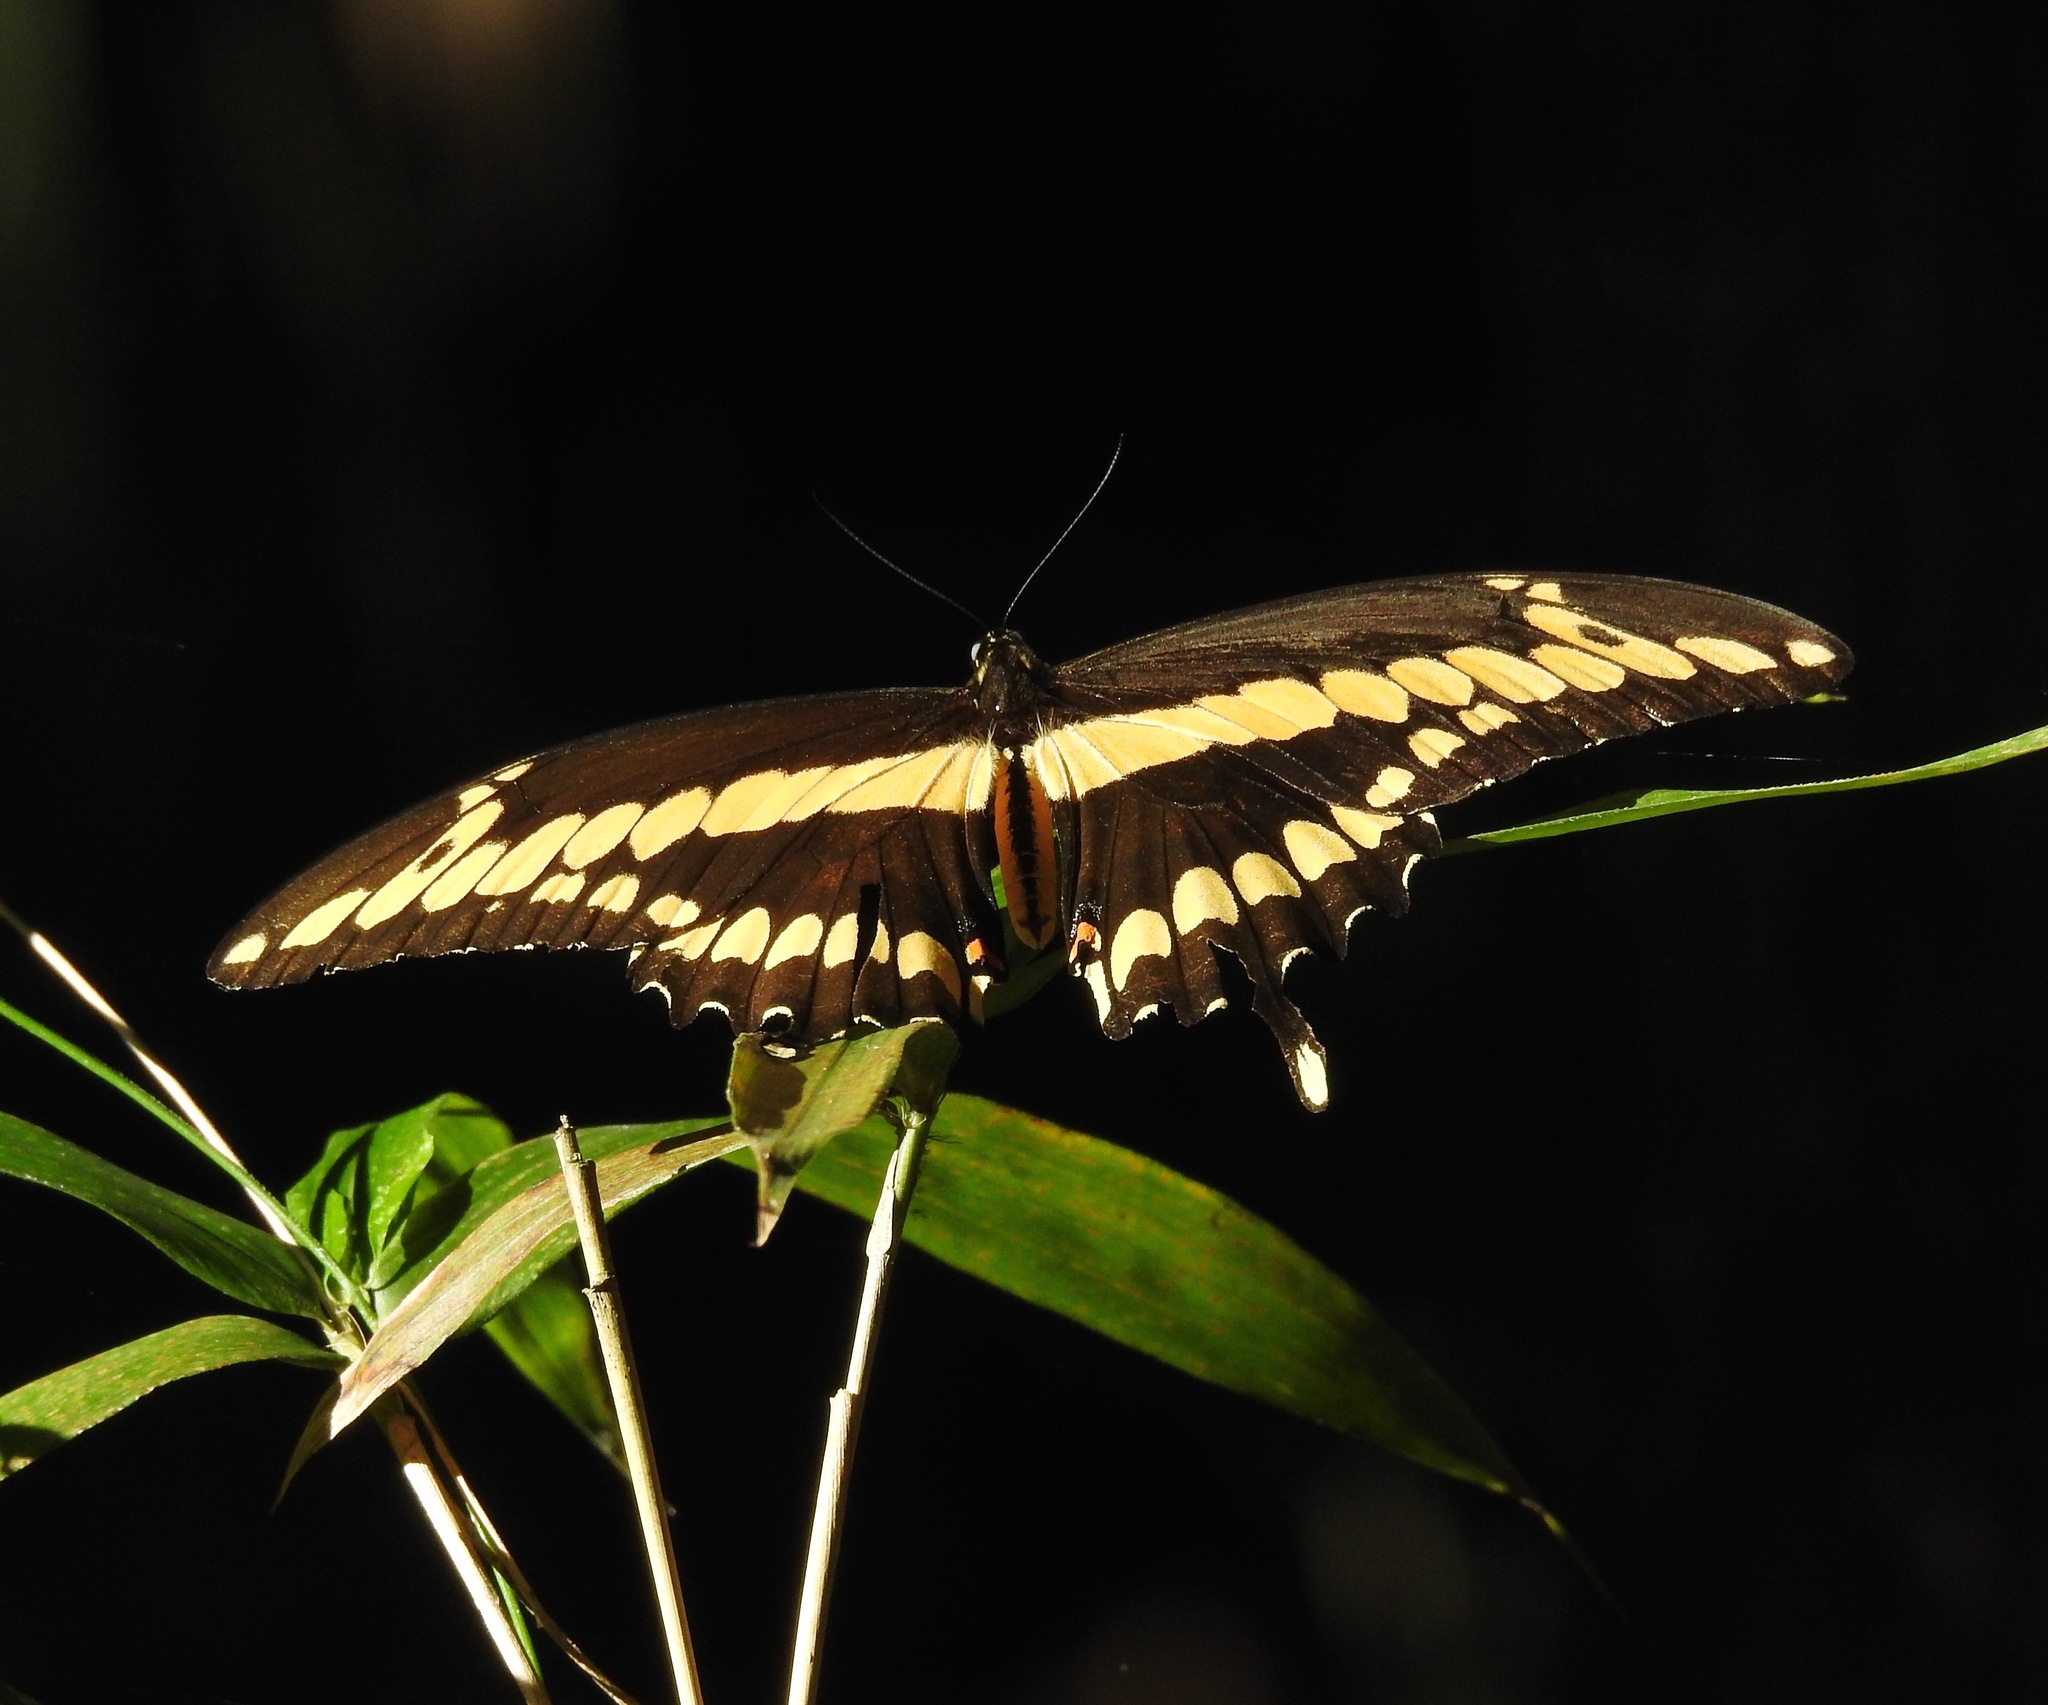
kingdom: Animalia
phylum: Arthropoda
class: Insecta
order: Lepidoptera
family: Papilionidae
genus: Papilio
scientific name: Papilio cresphontes
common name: Giant swallowtail
